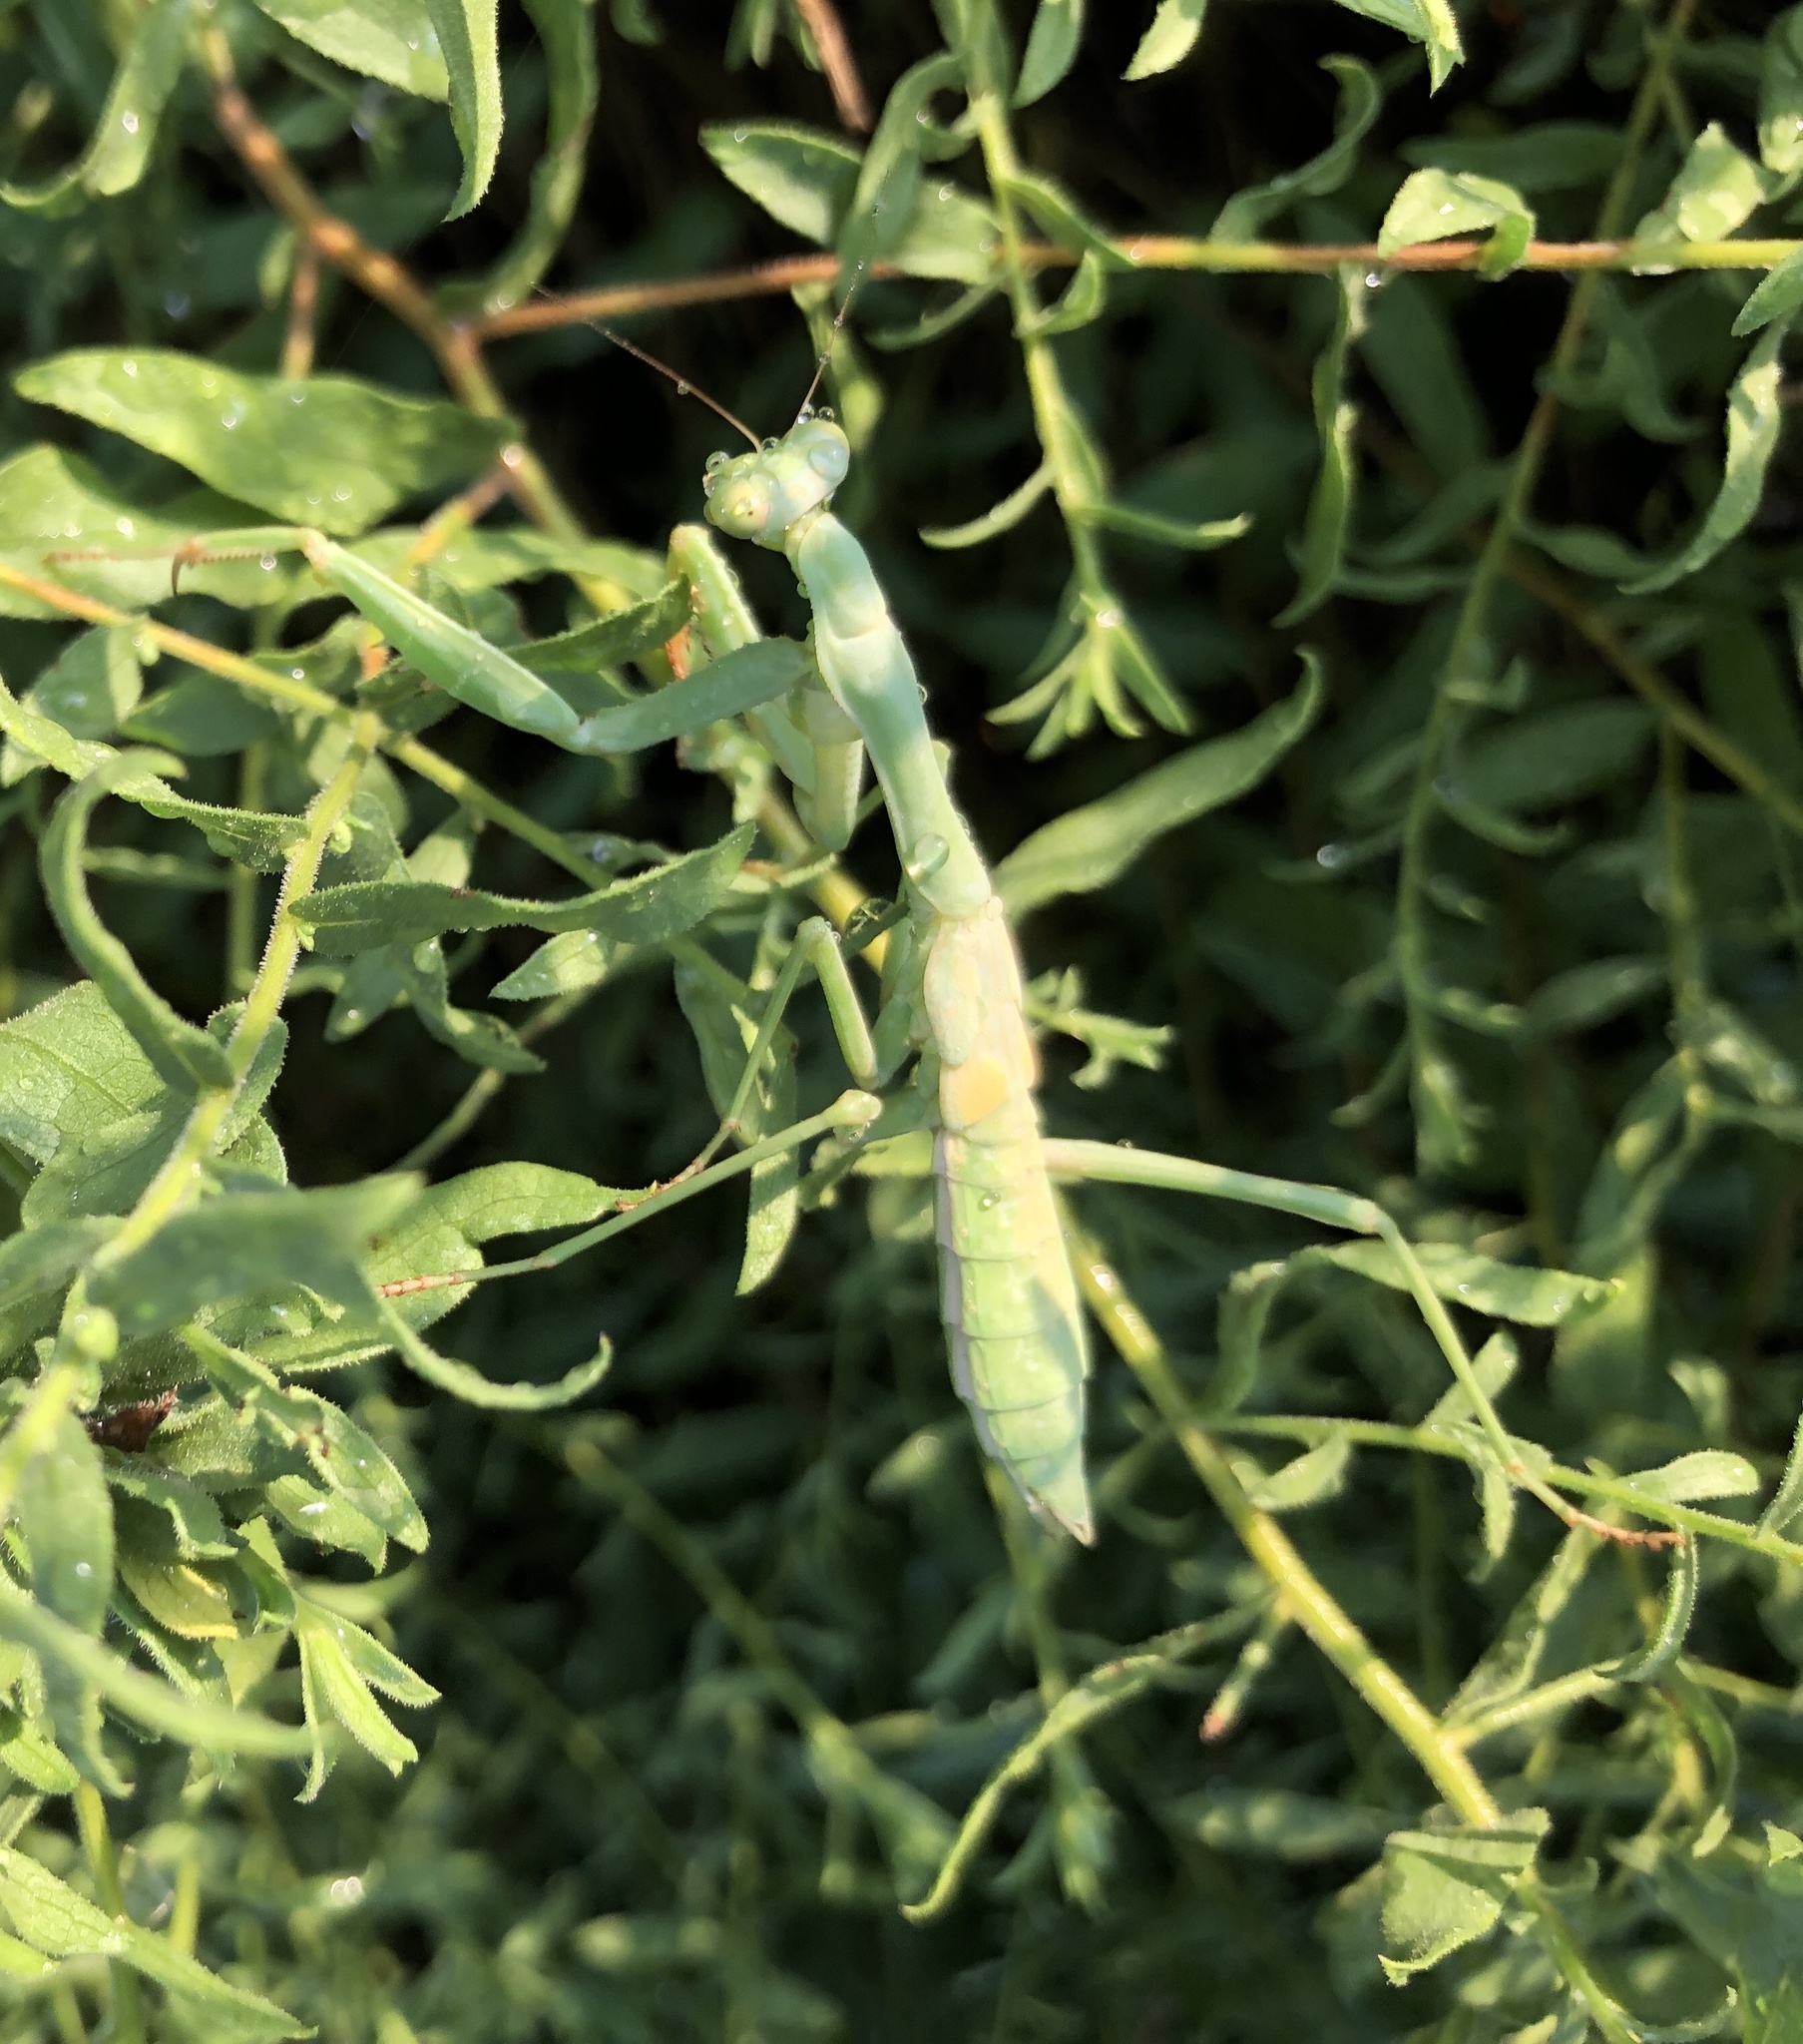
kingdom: Animalia
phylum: Arthropoda
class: Insecta
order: Mantodea
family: Mantidae
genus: Stagmomantis
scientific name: Stagmomantis carolina
